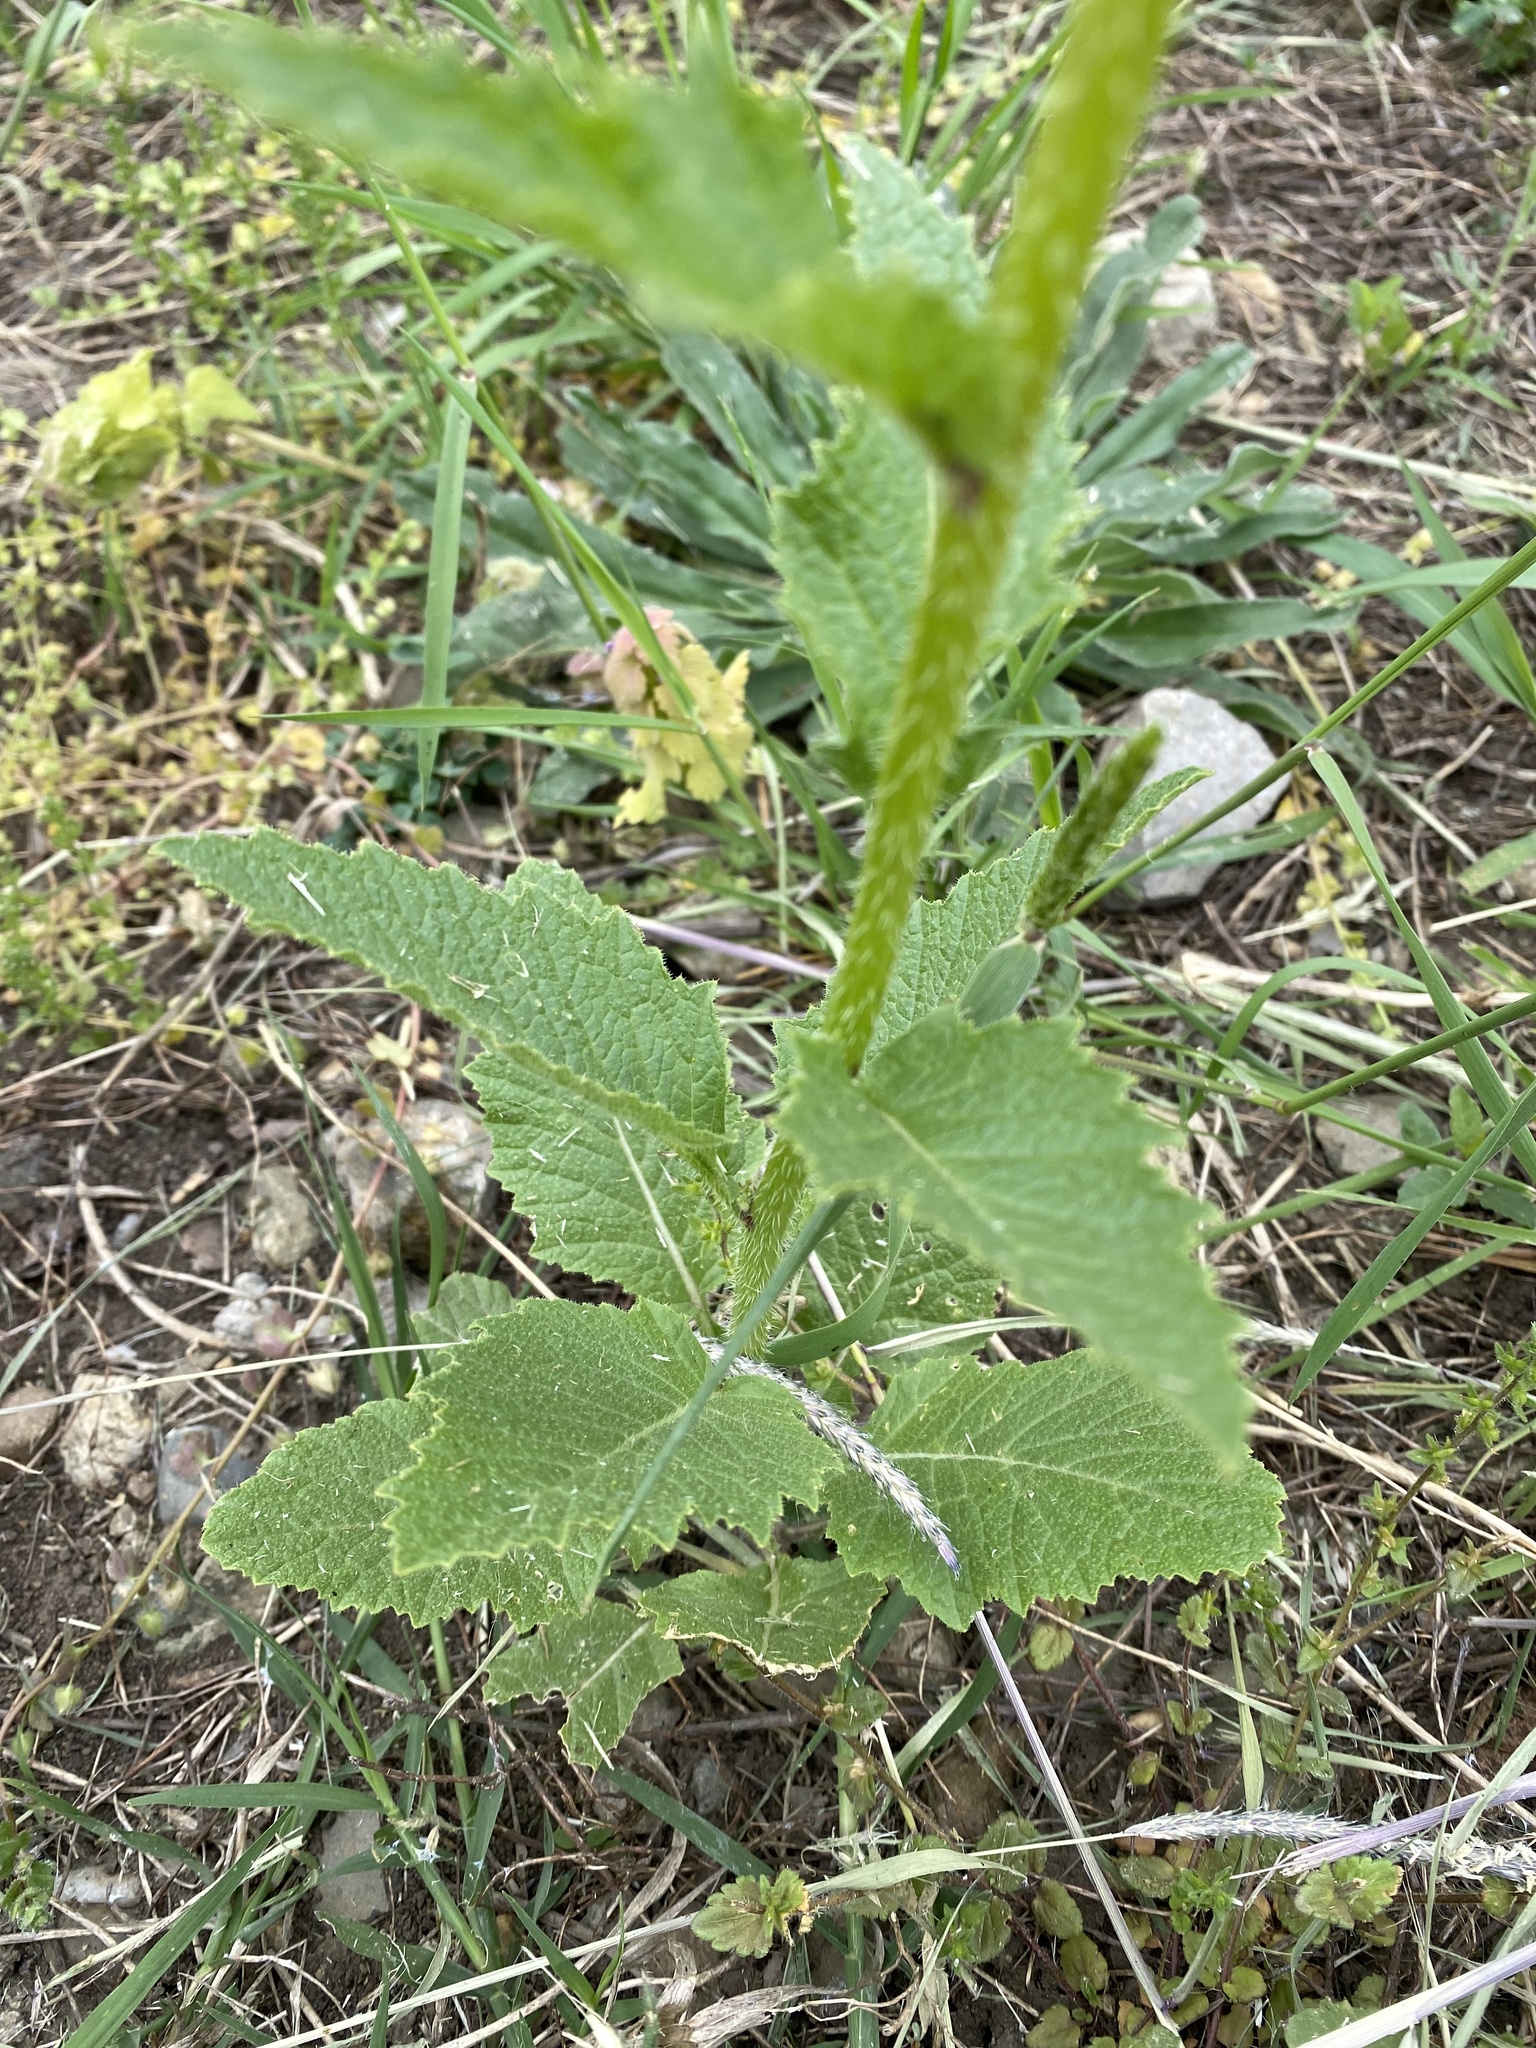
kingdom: Plantae
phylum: Tracheophyta
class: Magnoliopsida
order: Brassicales
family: Brassicaceae
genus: Sinapis
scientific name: Sinapis arvensis
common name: Charlock
